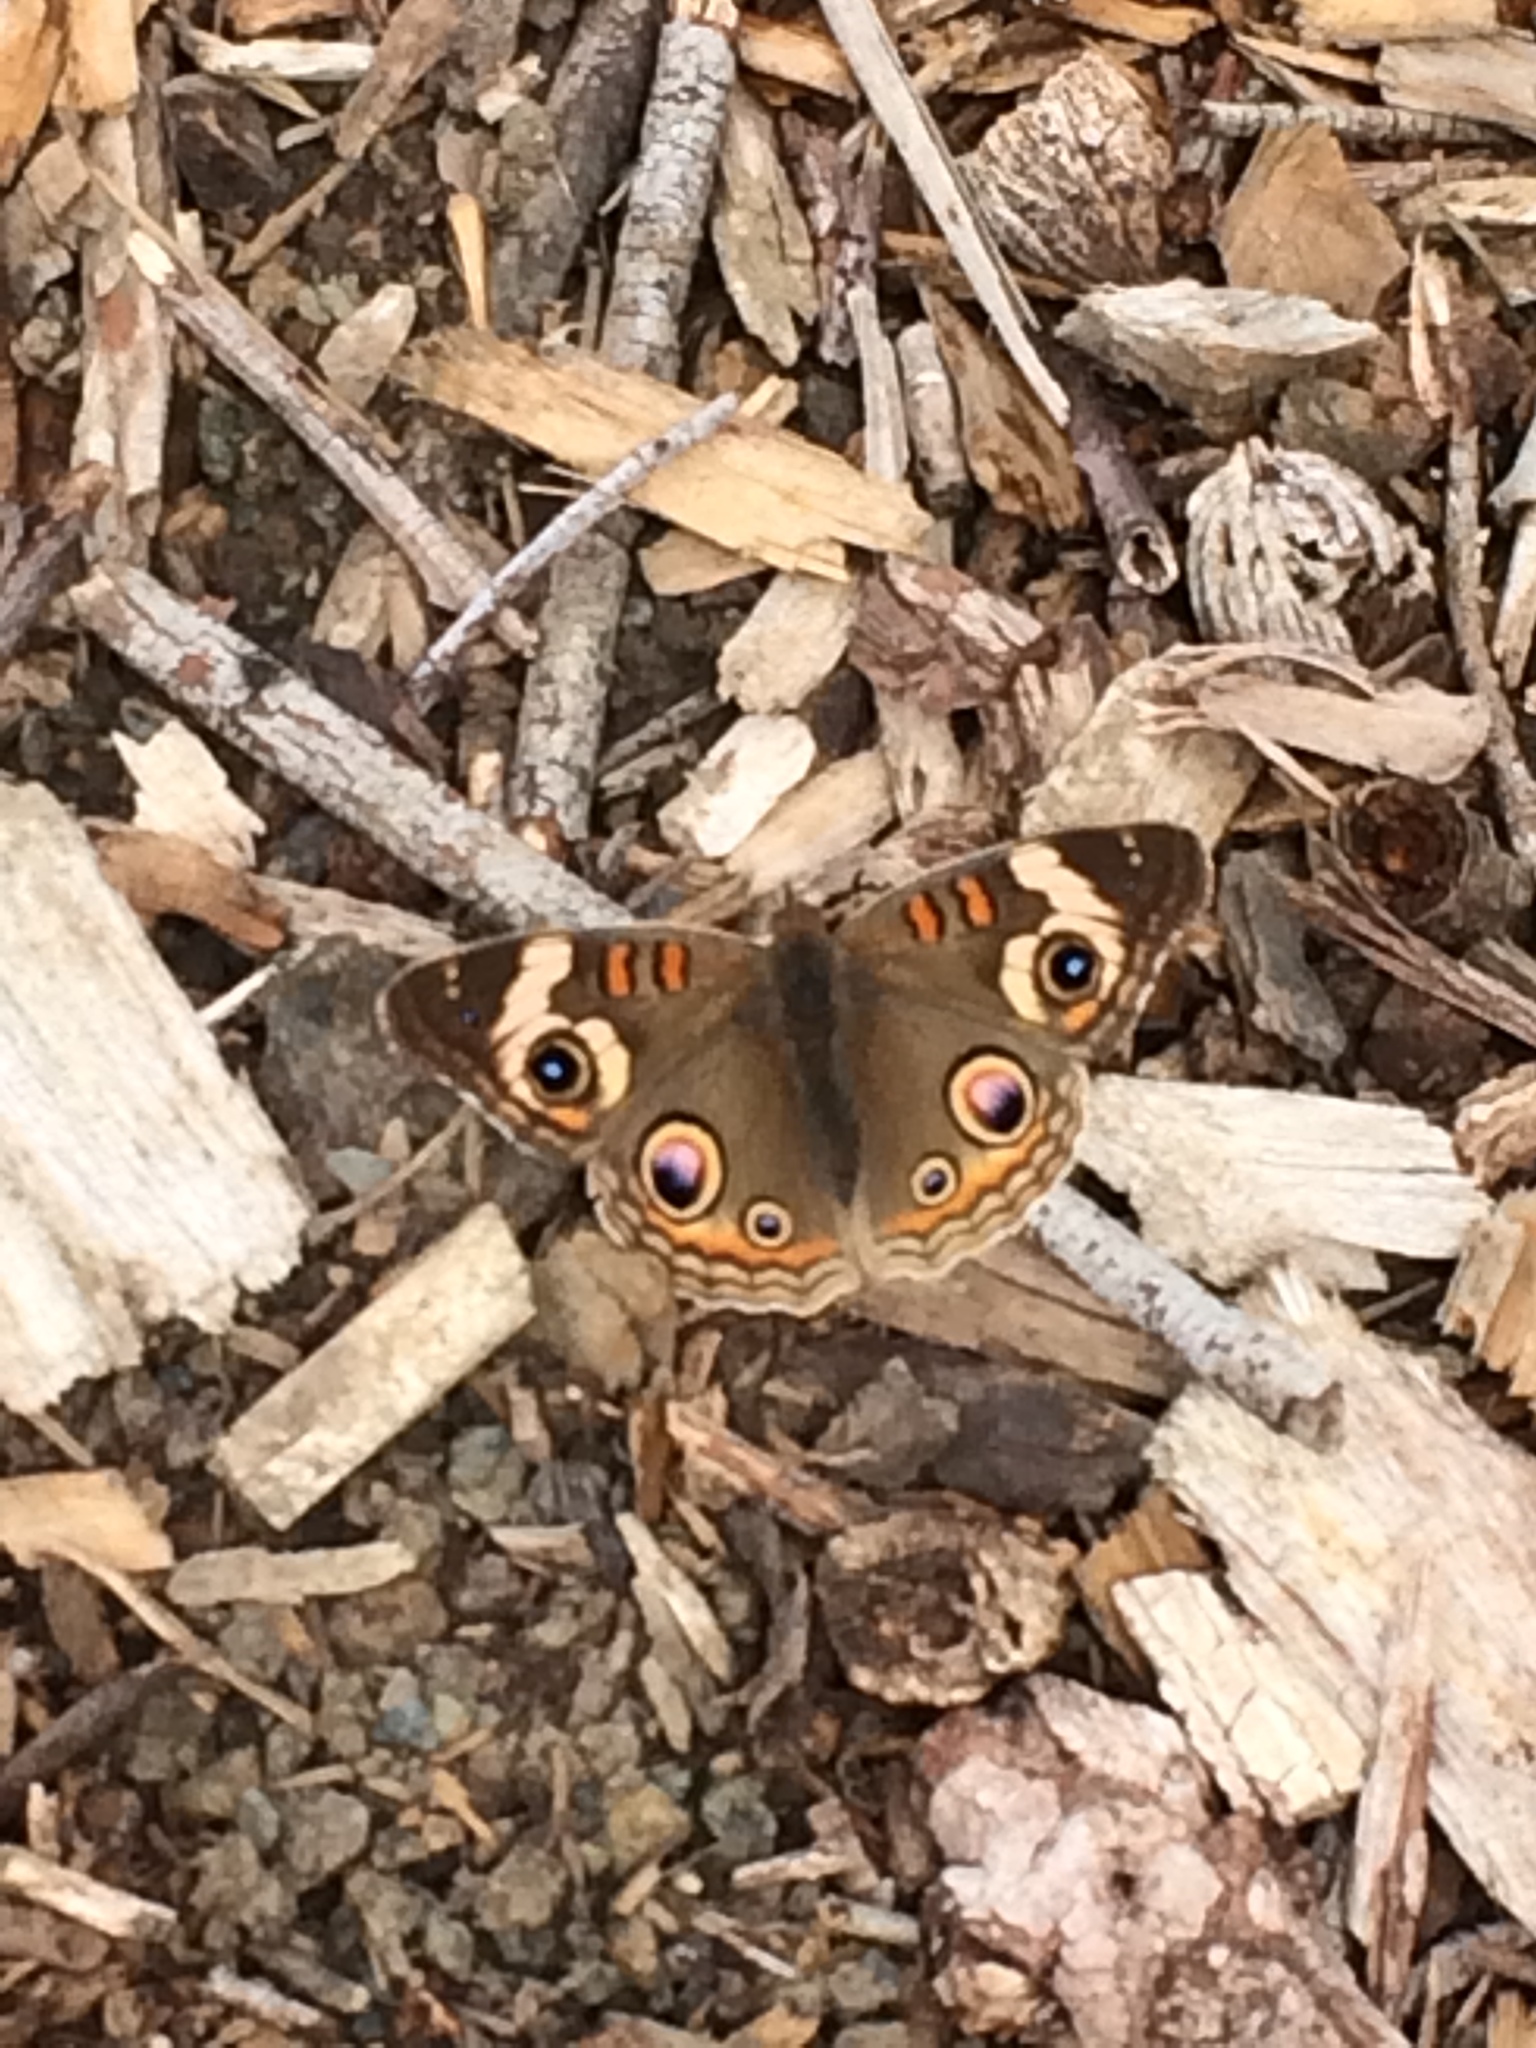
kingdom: Animalia
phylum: Arthropoda
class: Insecta
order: Lepidoptera
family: Nymphalidae
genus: Junonia
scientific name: Junonia grisea
